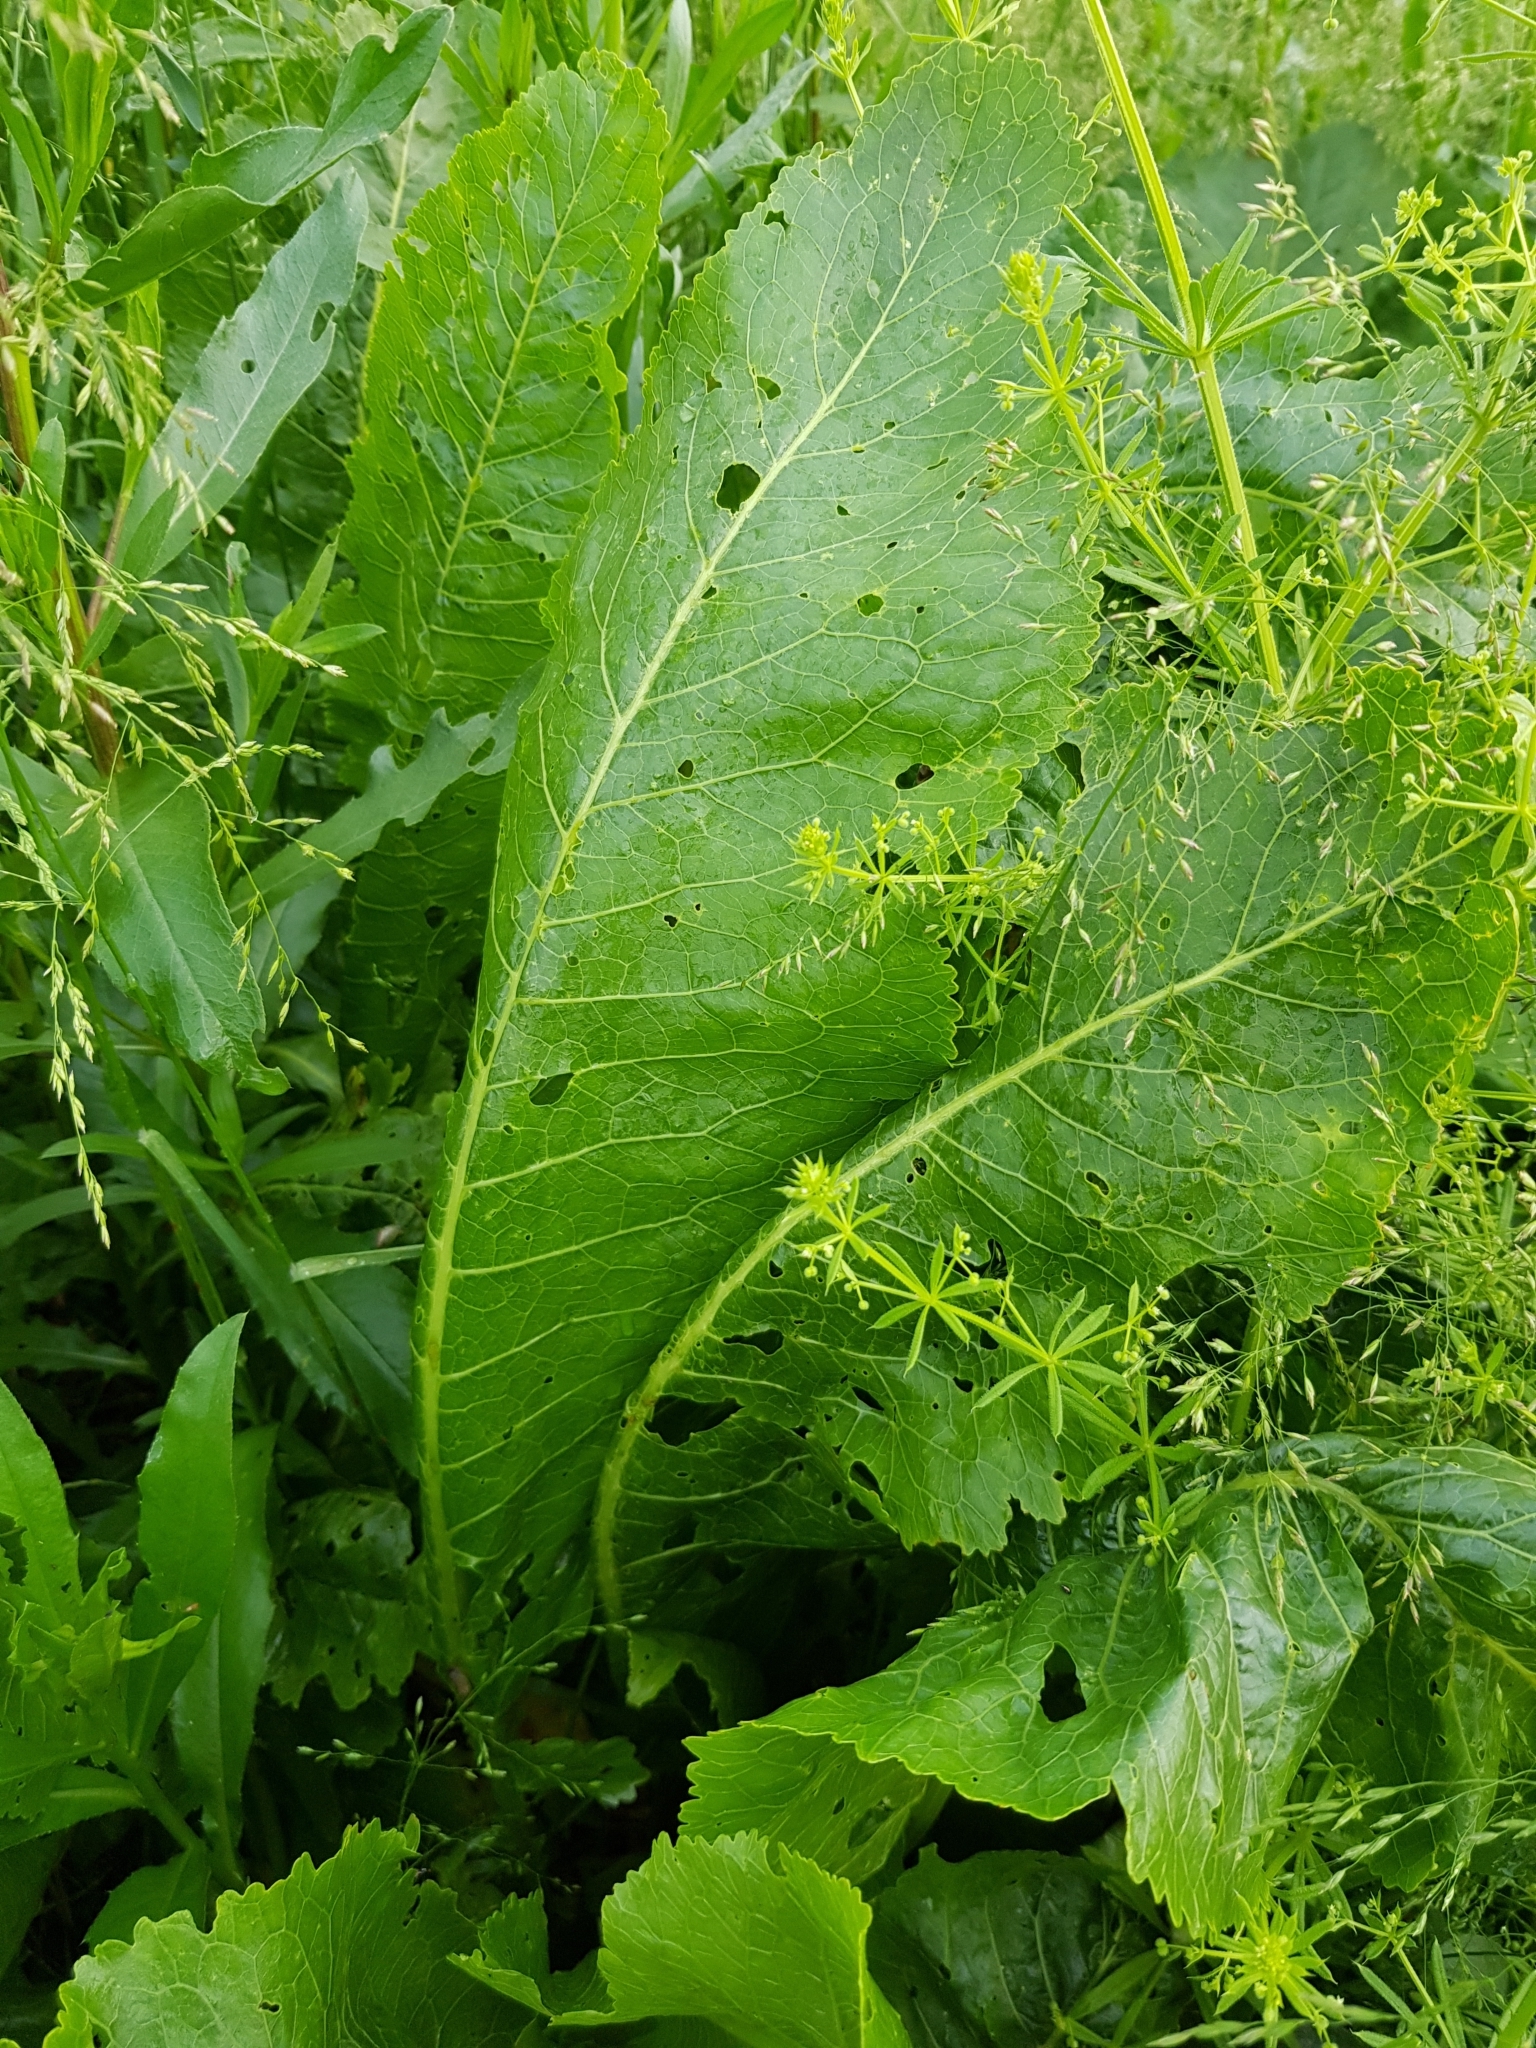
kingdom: Plantae
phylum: Tracheophyta
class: Magnoliopsida
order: Brassicales
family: Brassicaceae
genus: Armoracia
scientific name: Armoracia rusticana
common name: Horseradish
